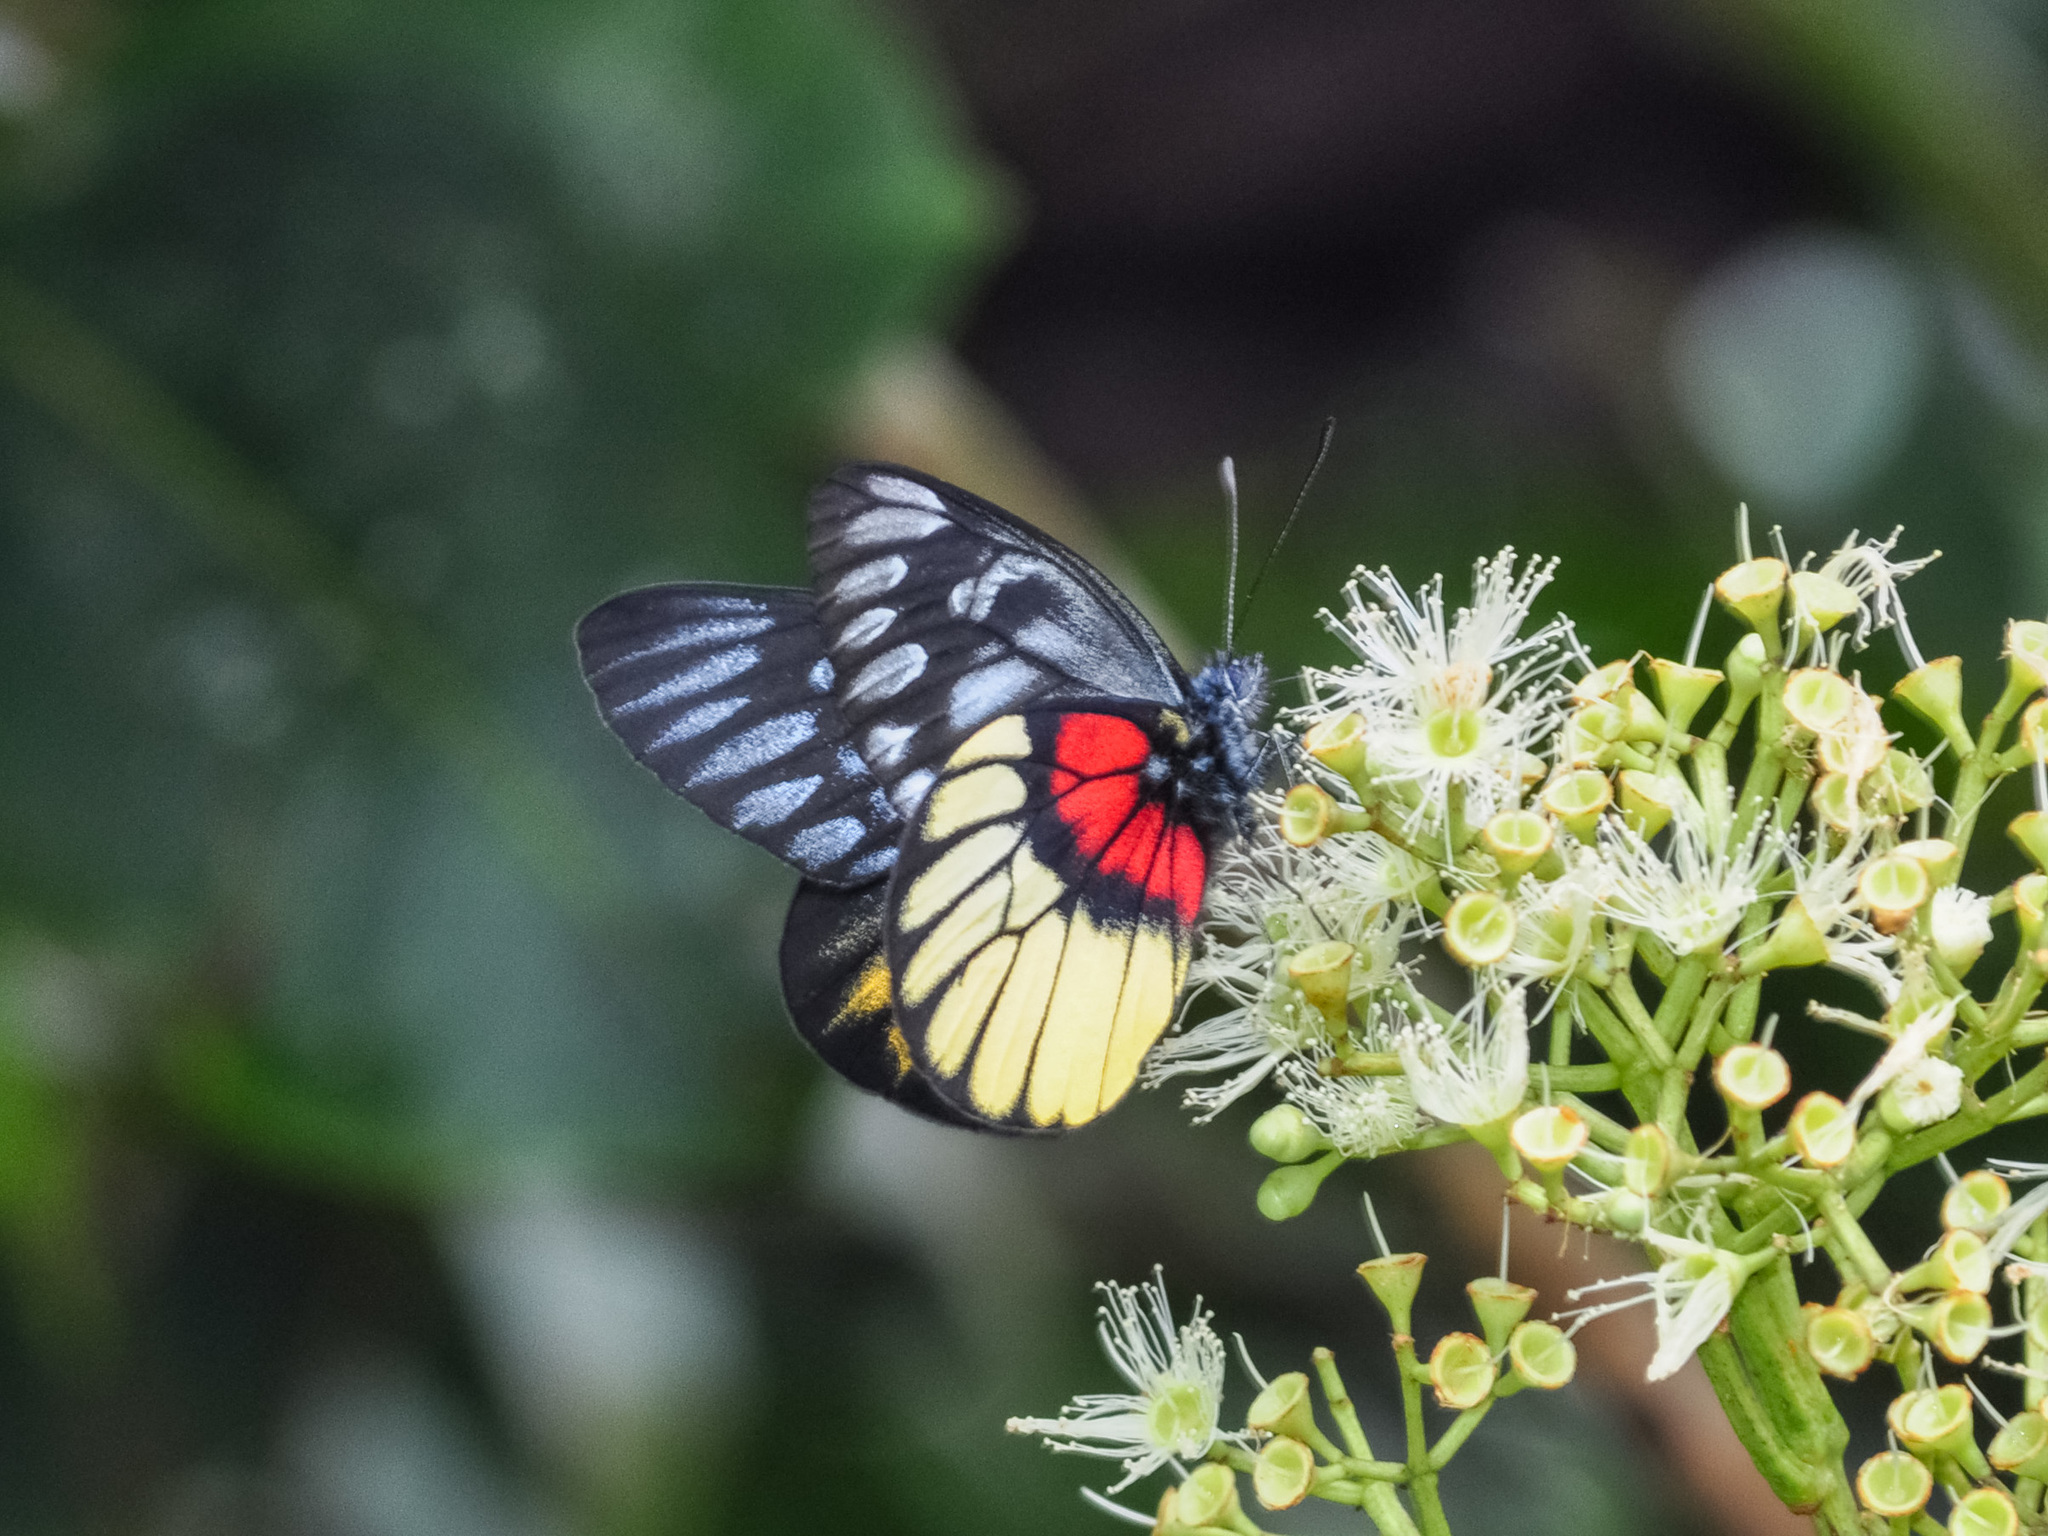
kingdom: Animalia
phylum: Arthropoda
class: Insecta
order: Lepidoptera
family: Pieridae
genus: Delias
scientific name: Delias ninus
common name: Malayan jezebel
